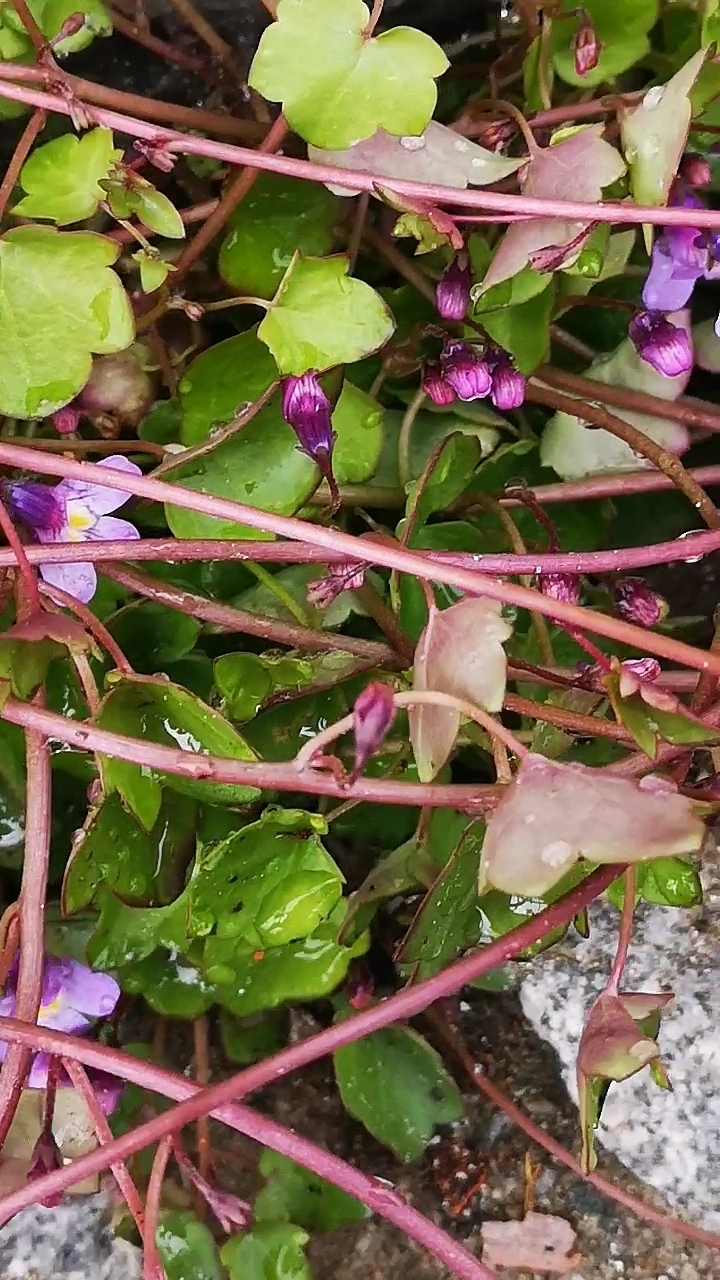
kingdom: Plantae
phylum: Tracheophyta
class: Magnoliopsida
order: Lamiales
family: Plantaginaceae
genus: Cymbalaria
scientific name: Cymbalaria muralis
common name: Ivy-leaved toadflax
